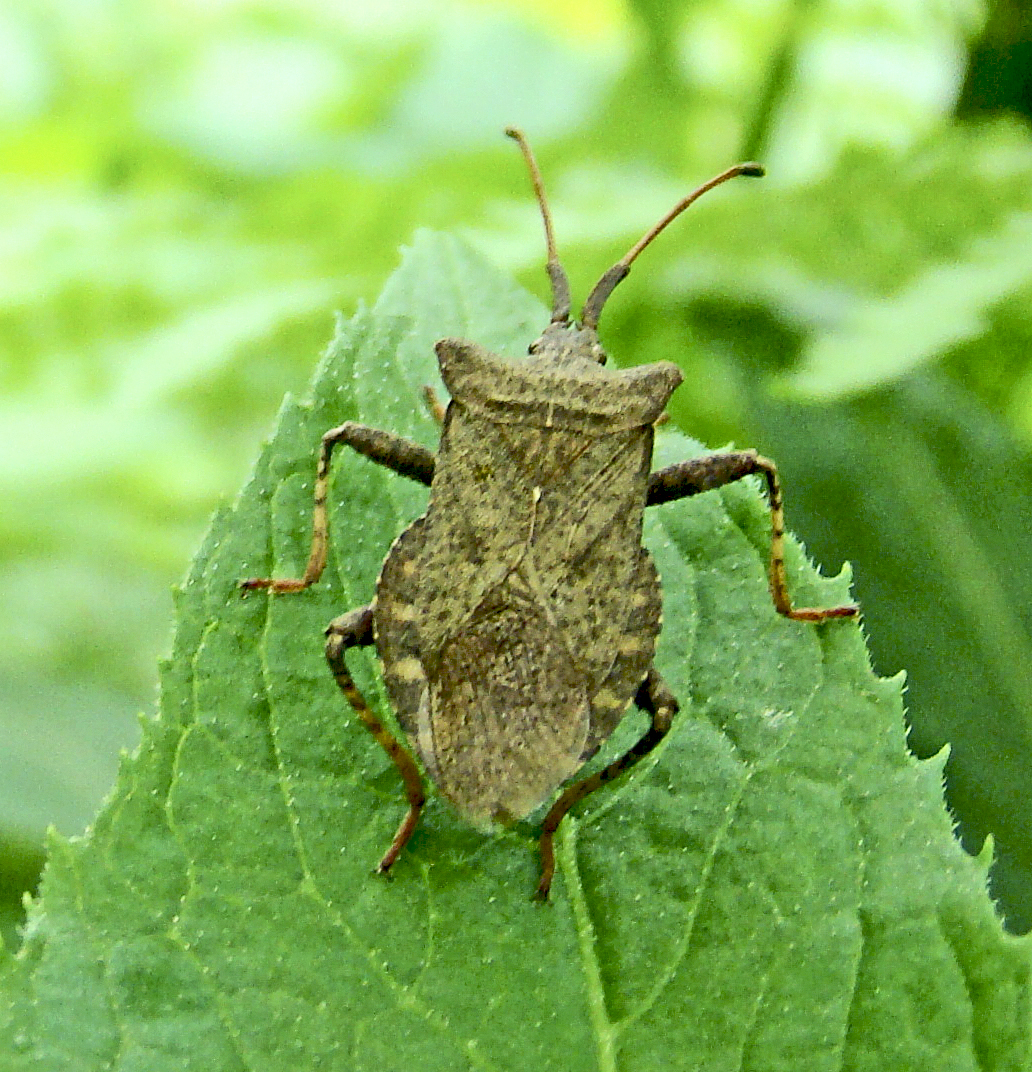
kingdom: Animalia
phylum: Arthropoda
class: Insecta
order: Hemiptera
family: Coreidae
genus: Coreus
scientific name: Coreus marginatus
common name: Dock bug
